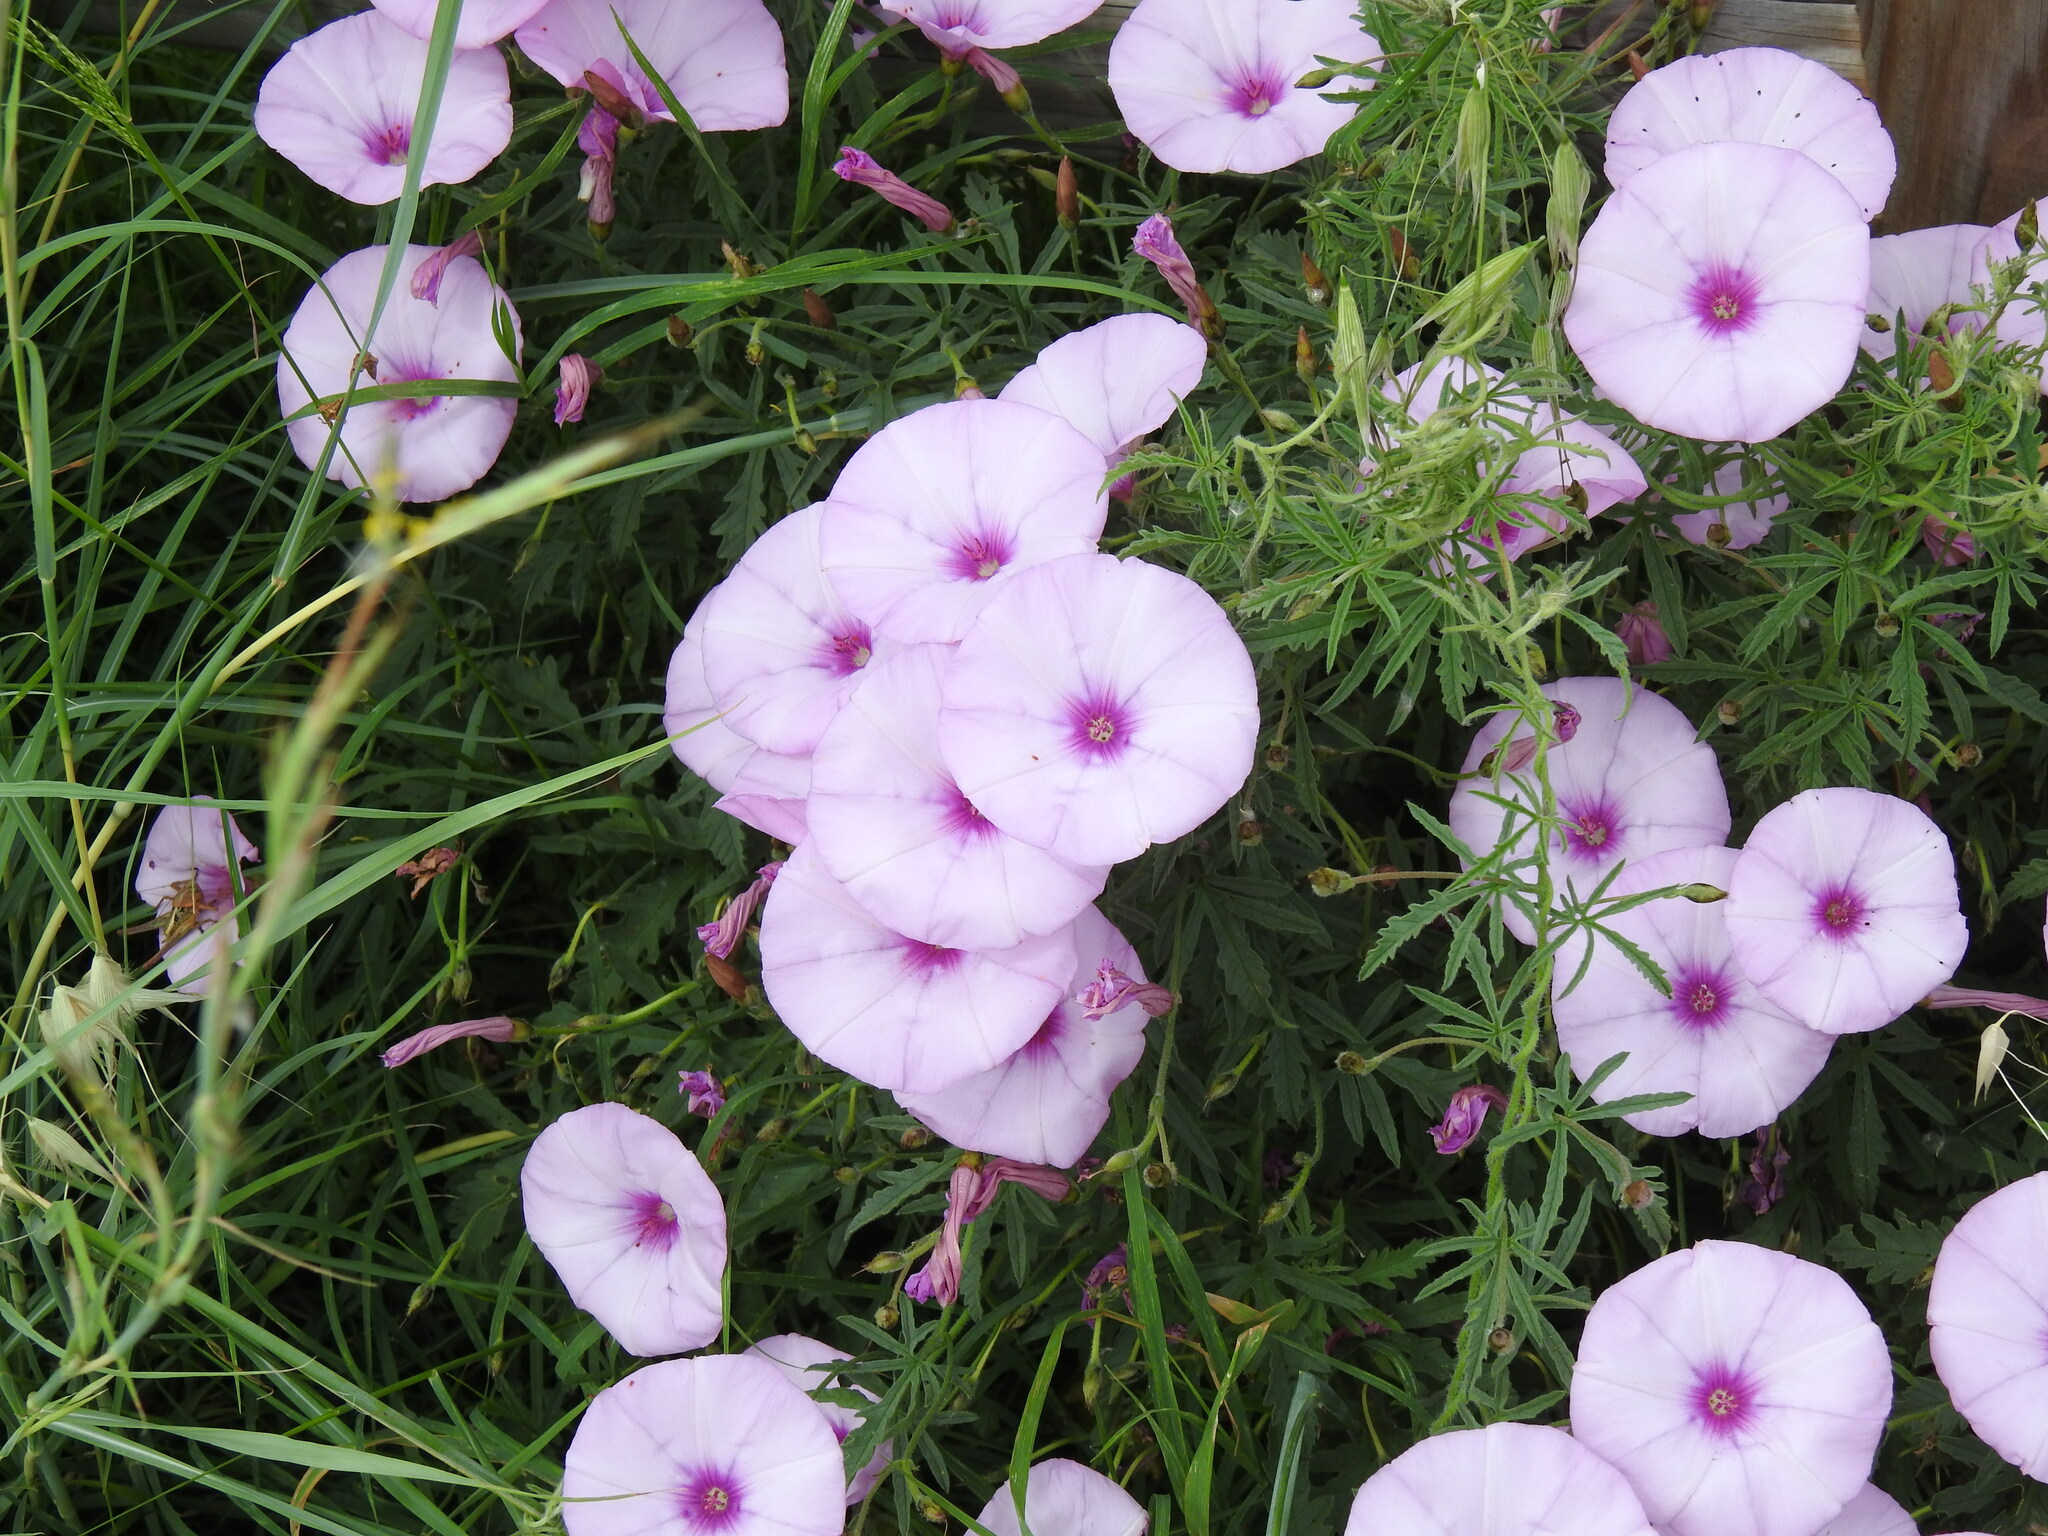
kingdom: Plantae
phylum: Tracheophyta
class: Magnoliopsida
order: Solanales
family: Convolvulaceae
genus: Convolvulus
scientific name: Convolvulus althaeoides
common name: Mallow bindweed
